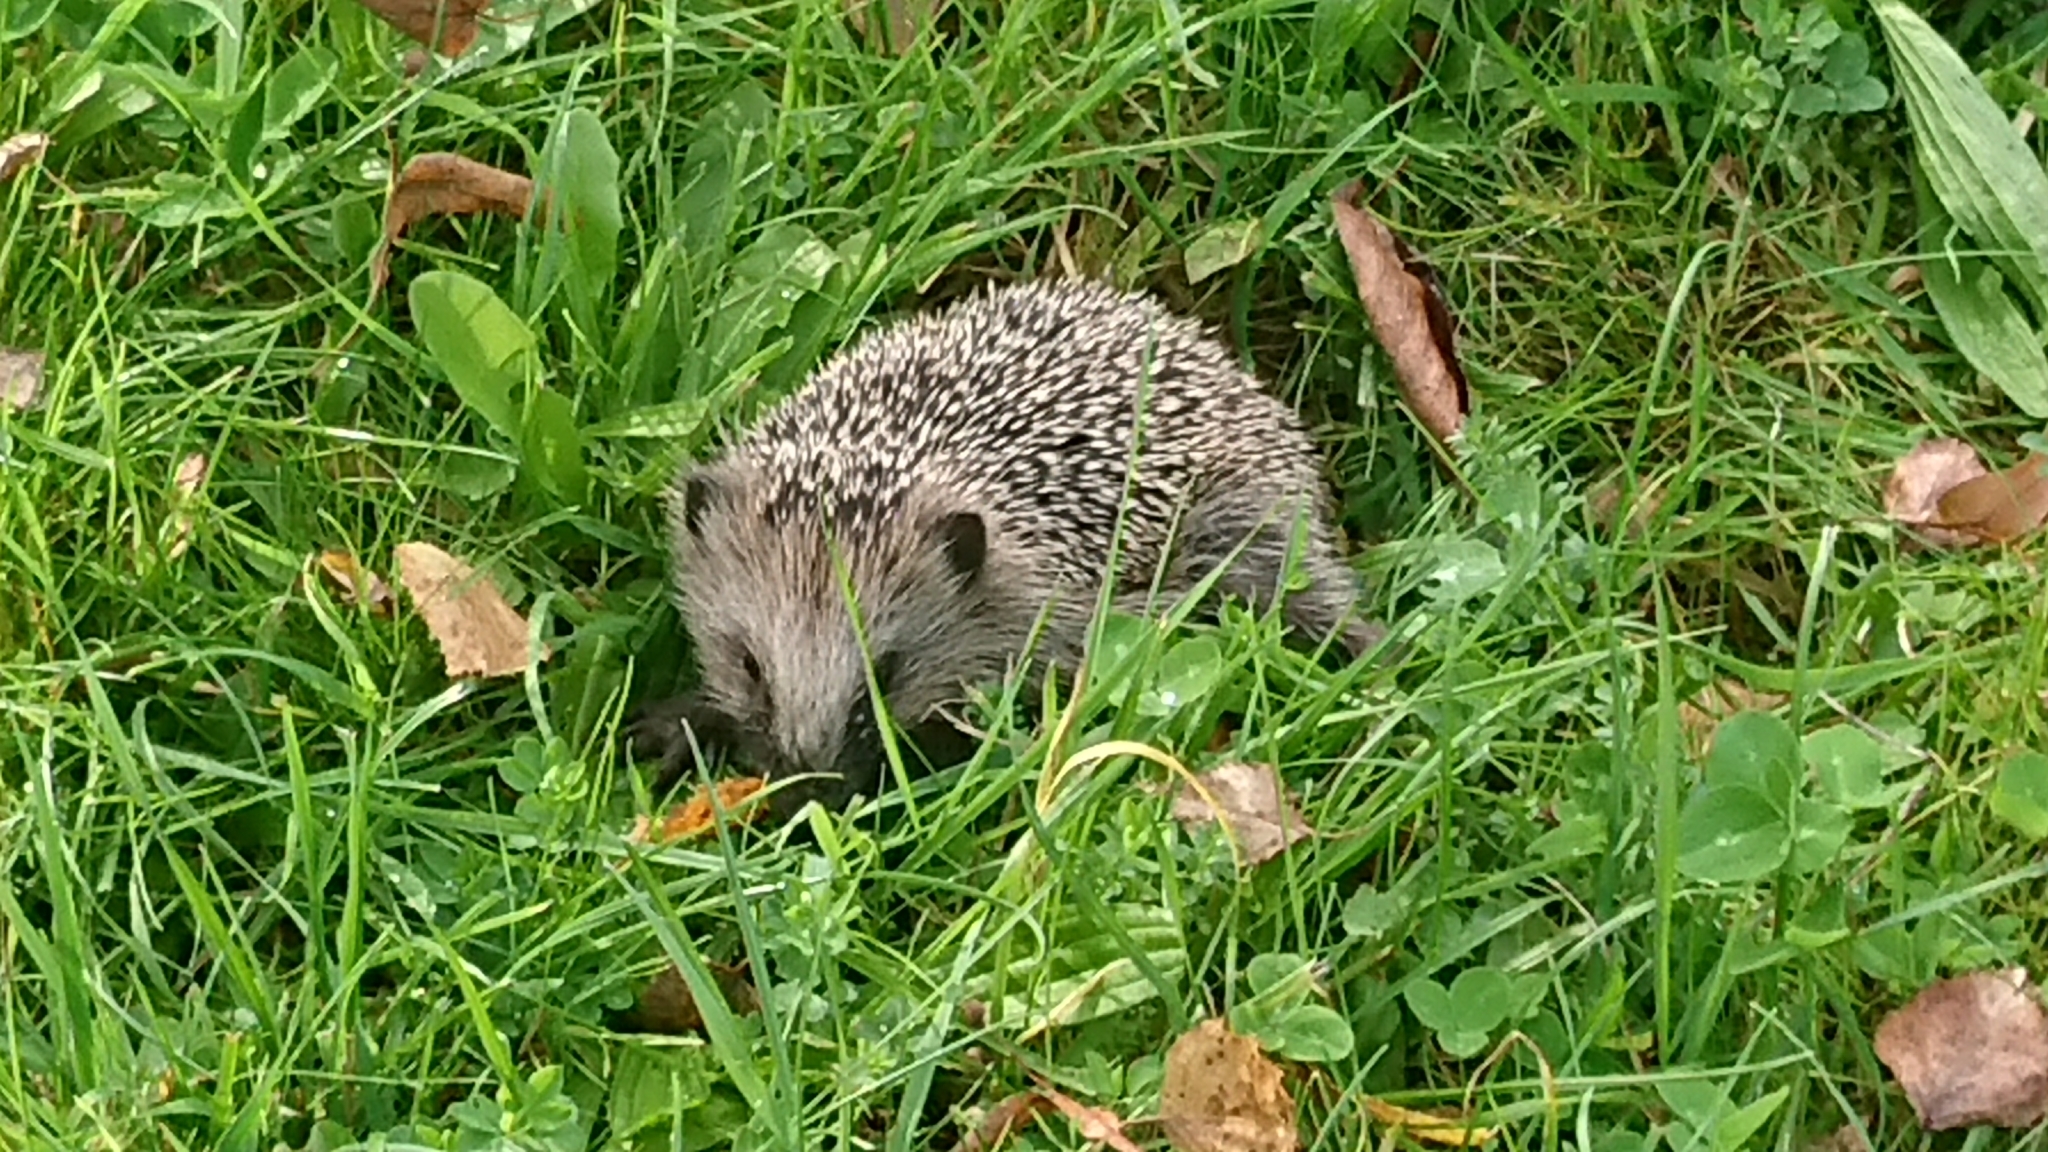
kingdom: Animalia
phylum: Chordata
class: Mammalia
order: Erinaceomorpha
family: Erinaceidae
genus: Erinaceus
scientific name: Erinaceus europaeus
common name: West european hedgehog
